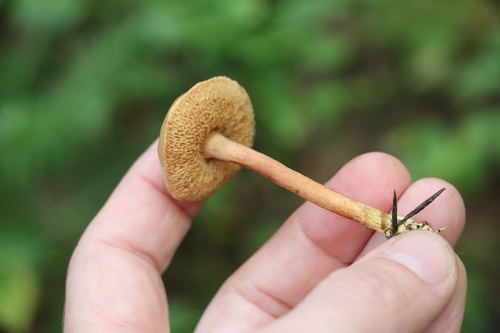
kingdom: Fungi
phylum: Basidiomycota
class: Agaricomycetes
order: Boletales
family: Boletaceae
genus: Chalciporus
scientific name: Chalciporus piperatus
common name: Peppery bolete
